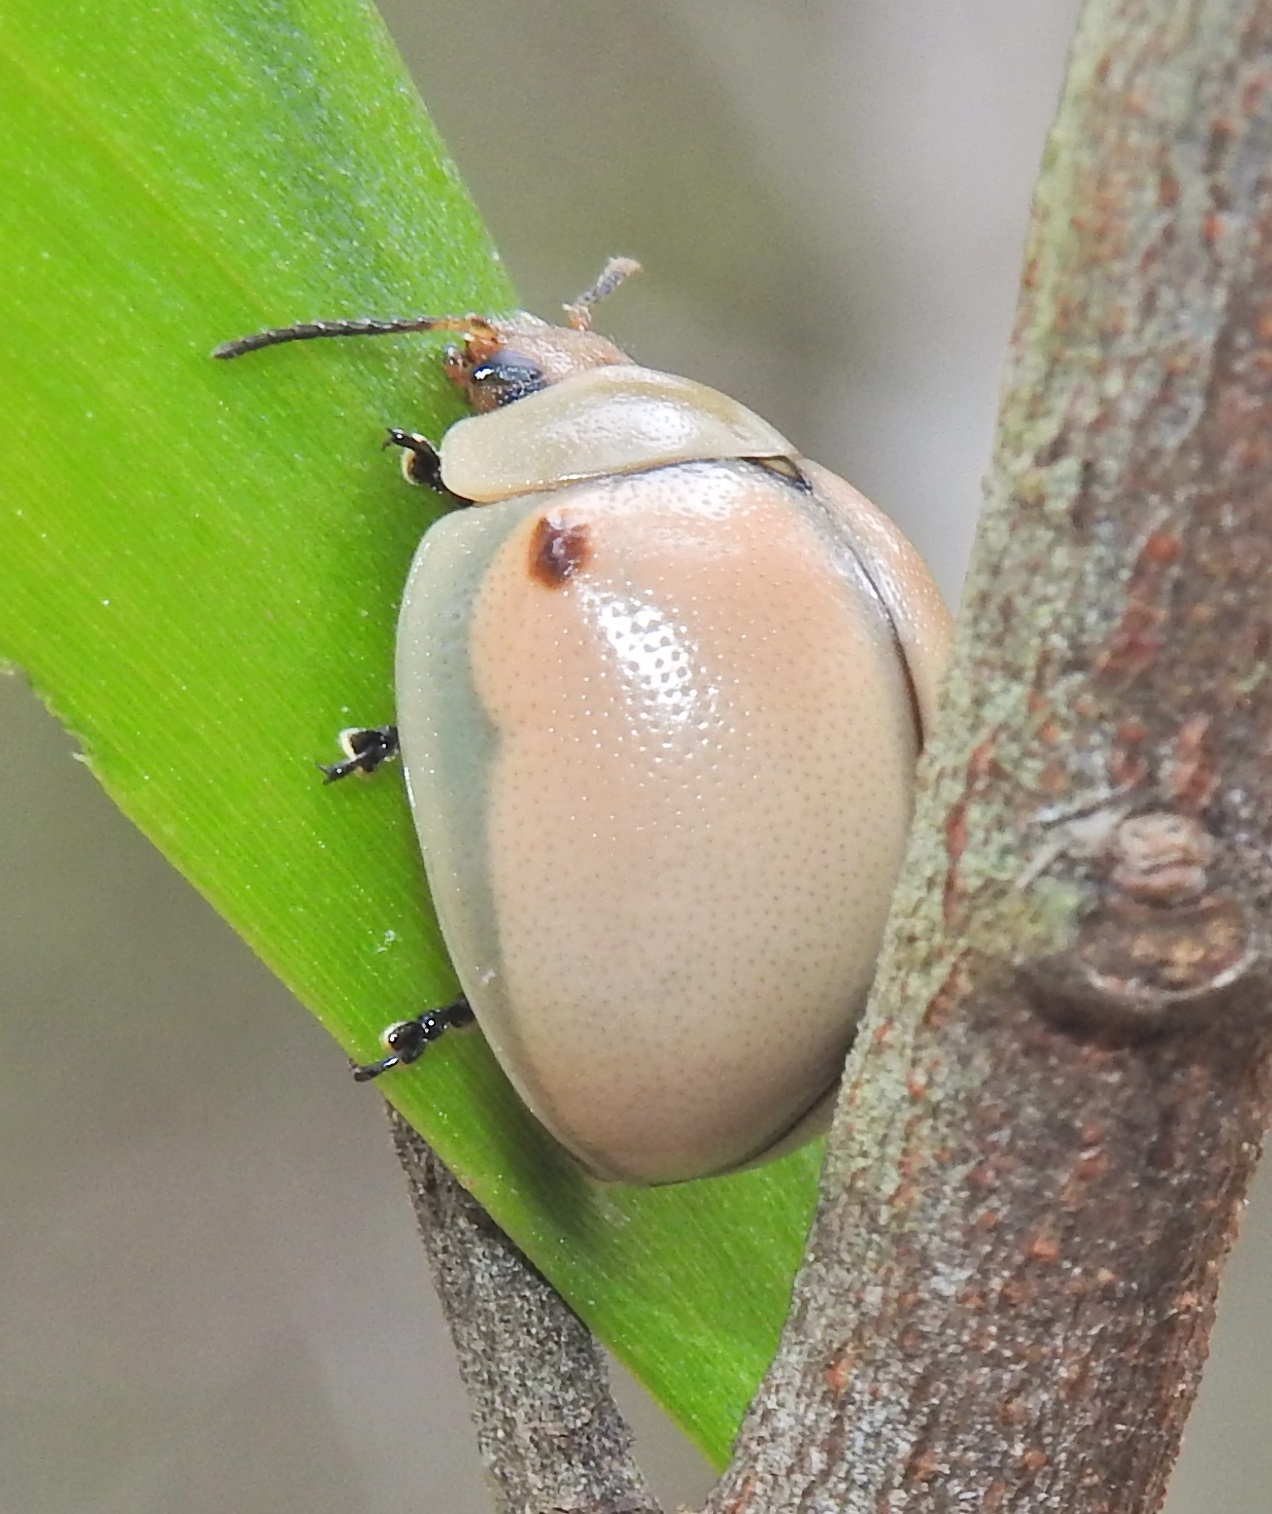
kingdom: Animalia
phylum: Arthropoda
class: Insecta
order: Coleoptera
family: Chrysomelidae
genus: Dicranosterna
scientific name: Dicranosterna
